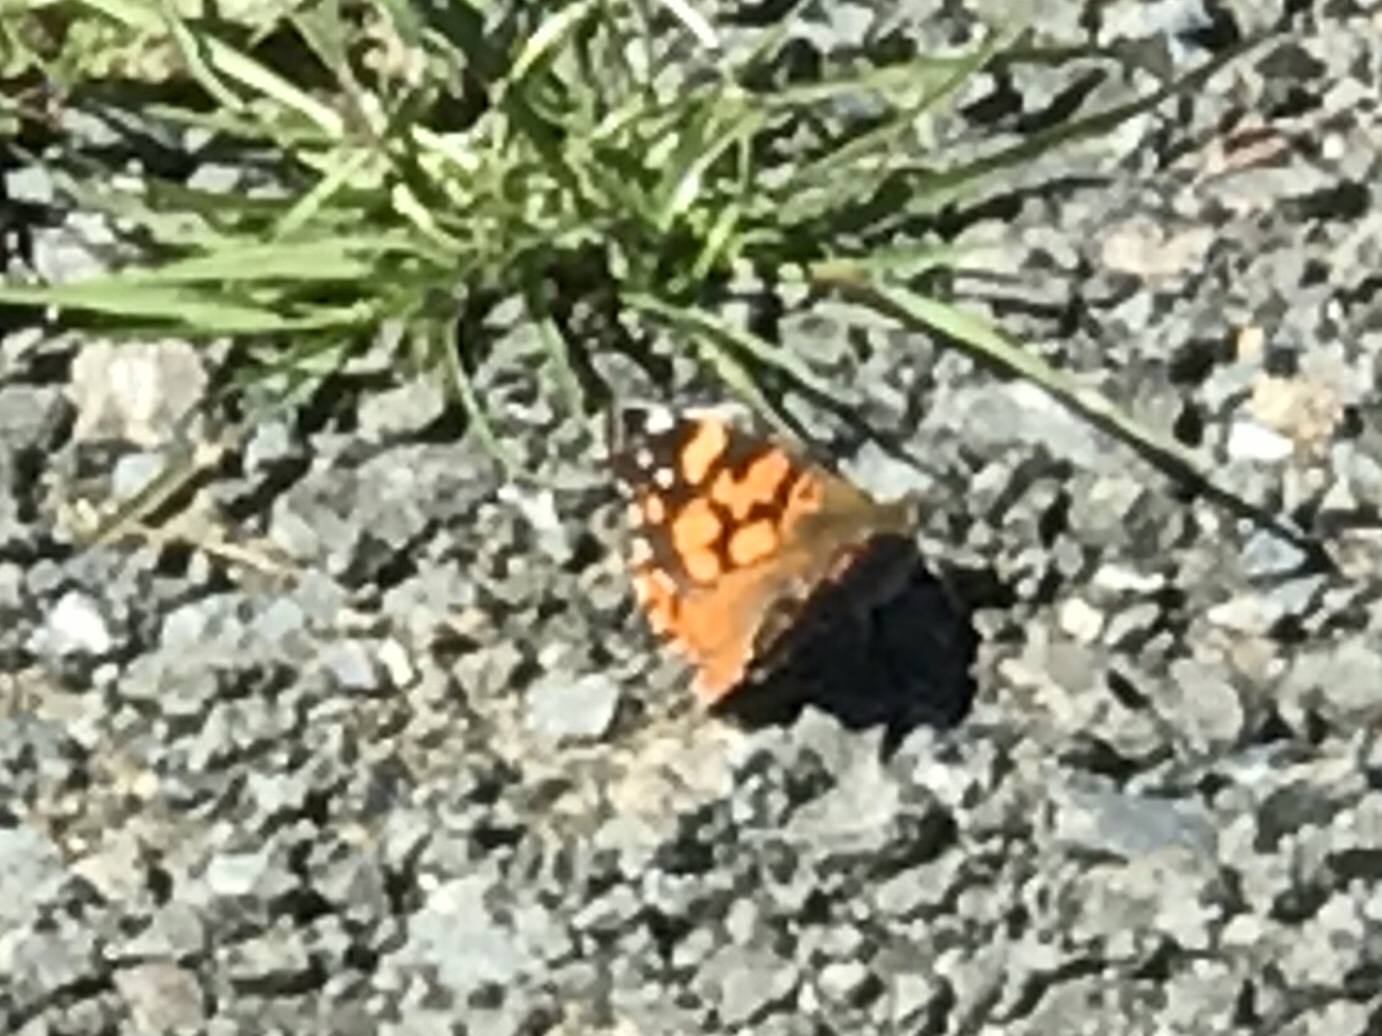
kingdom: Animalia
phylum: Arthropoda
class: Insecta
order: Lepidoptera
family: Nymphalidae
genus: Vanessa
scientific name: Vanessa annabella
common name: West coast lady
